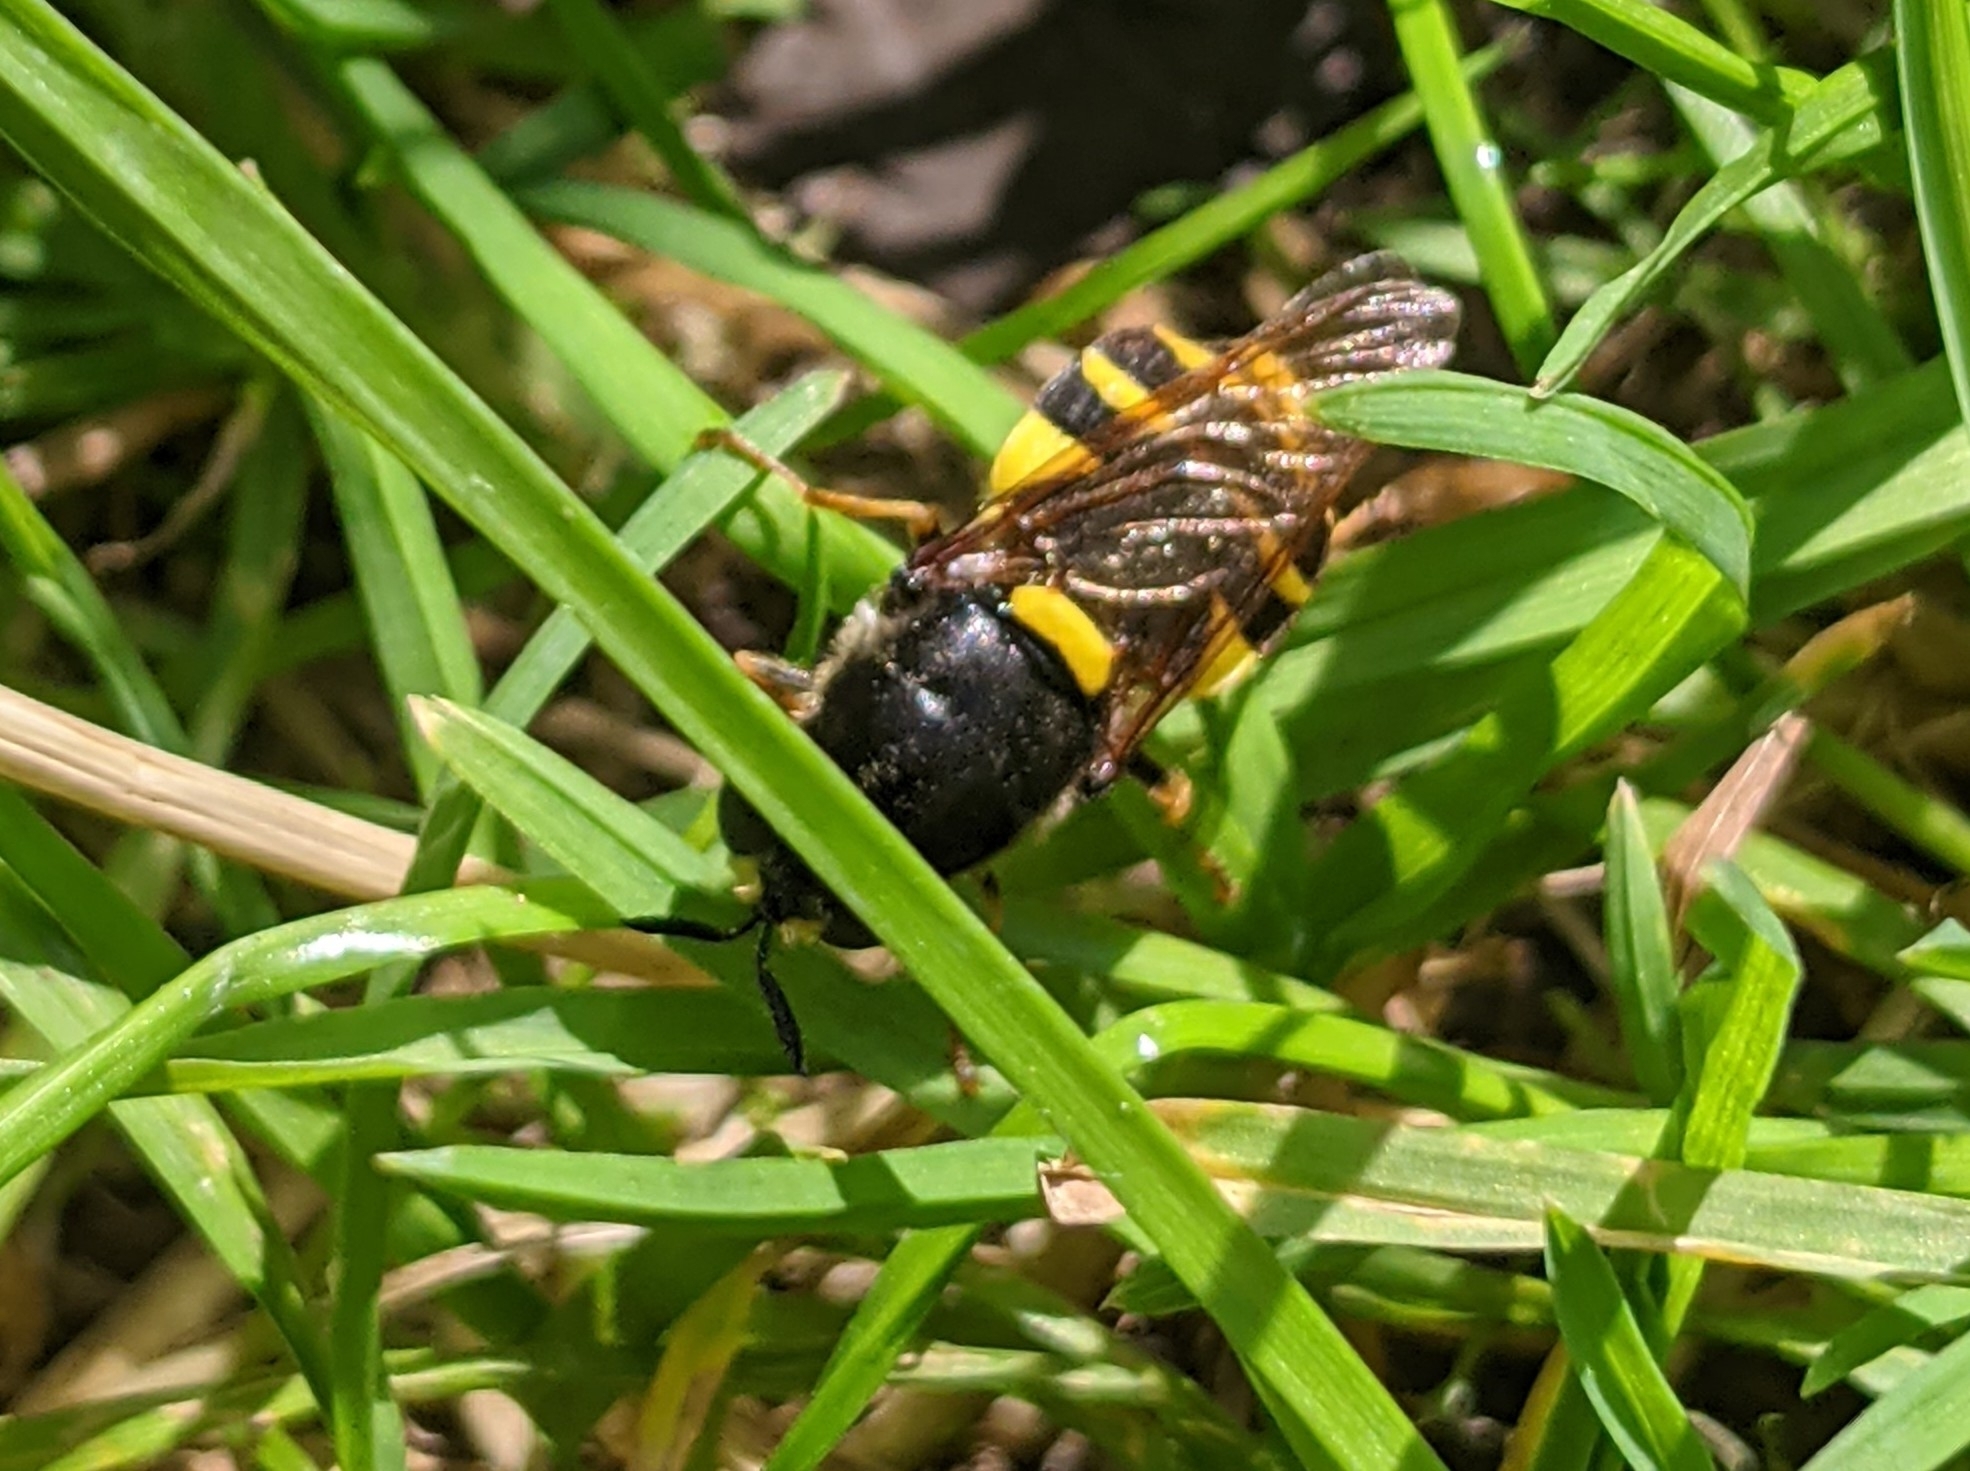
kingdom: Animalia
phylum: Arthropoda
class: Insecta
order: Diptera
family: Stratiomyidae
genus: Stratiomys
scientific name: Stratiomys potamida
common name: Banded general
